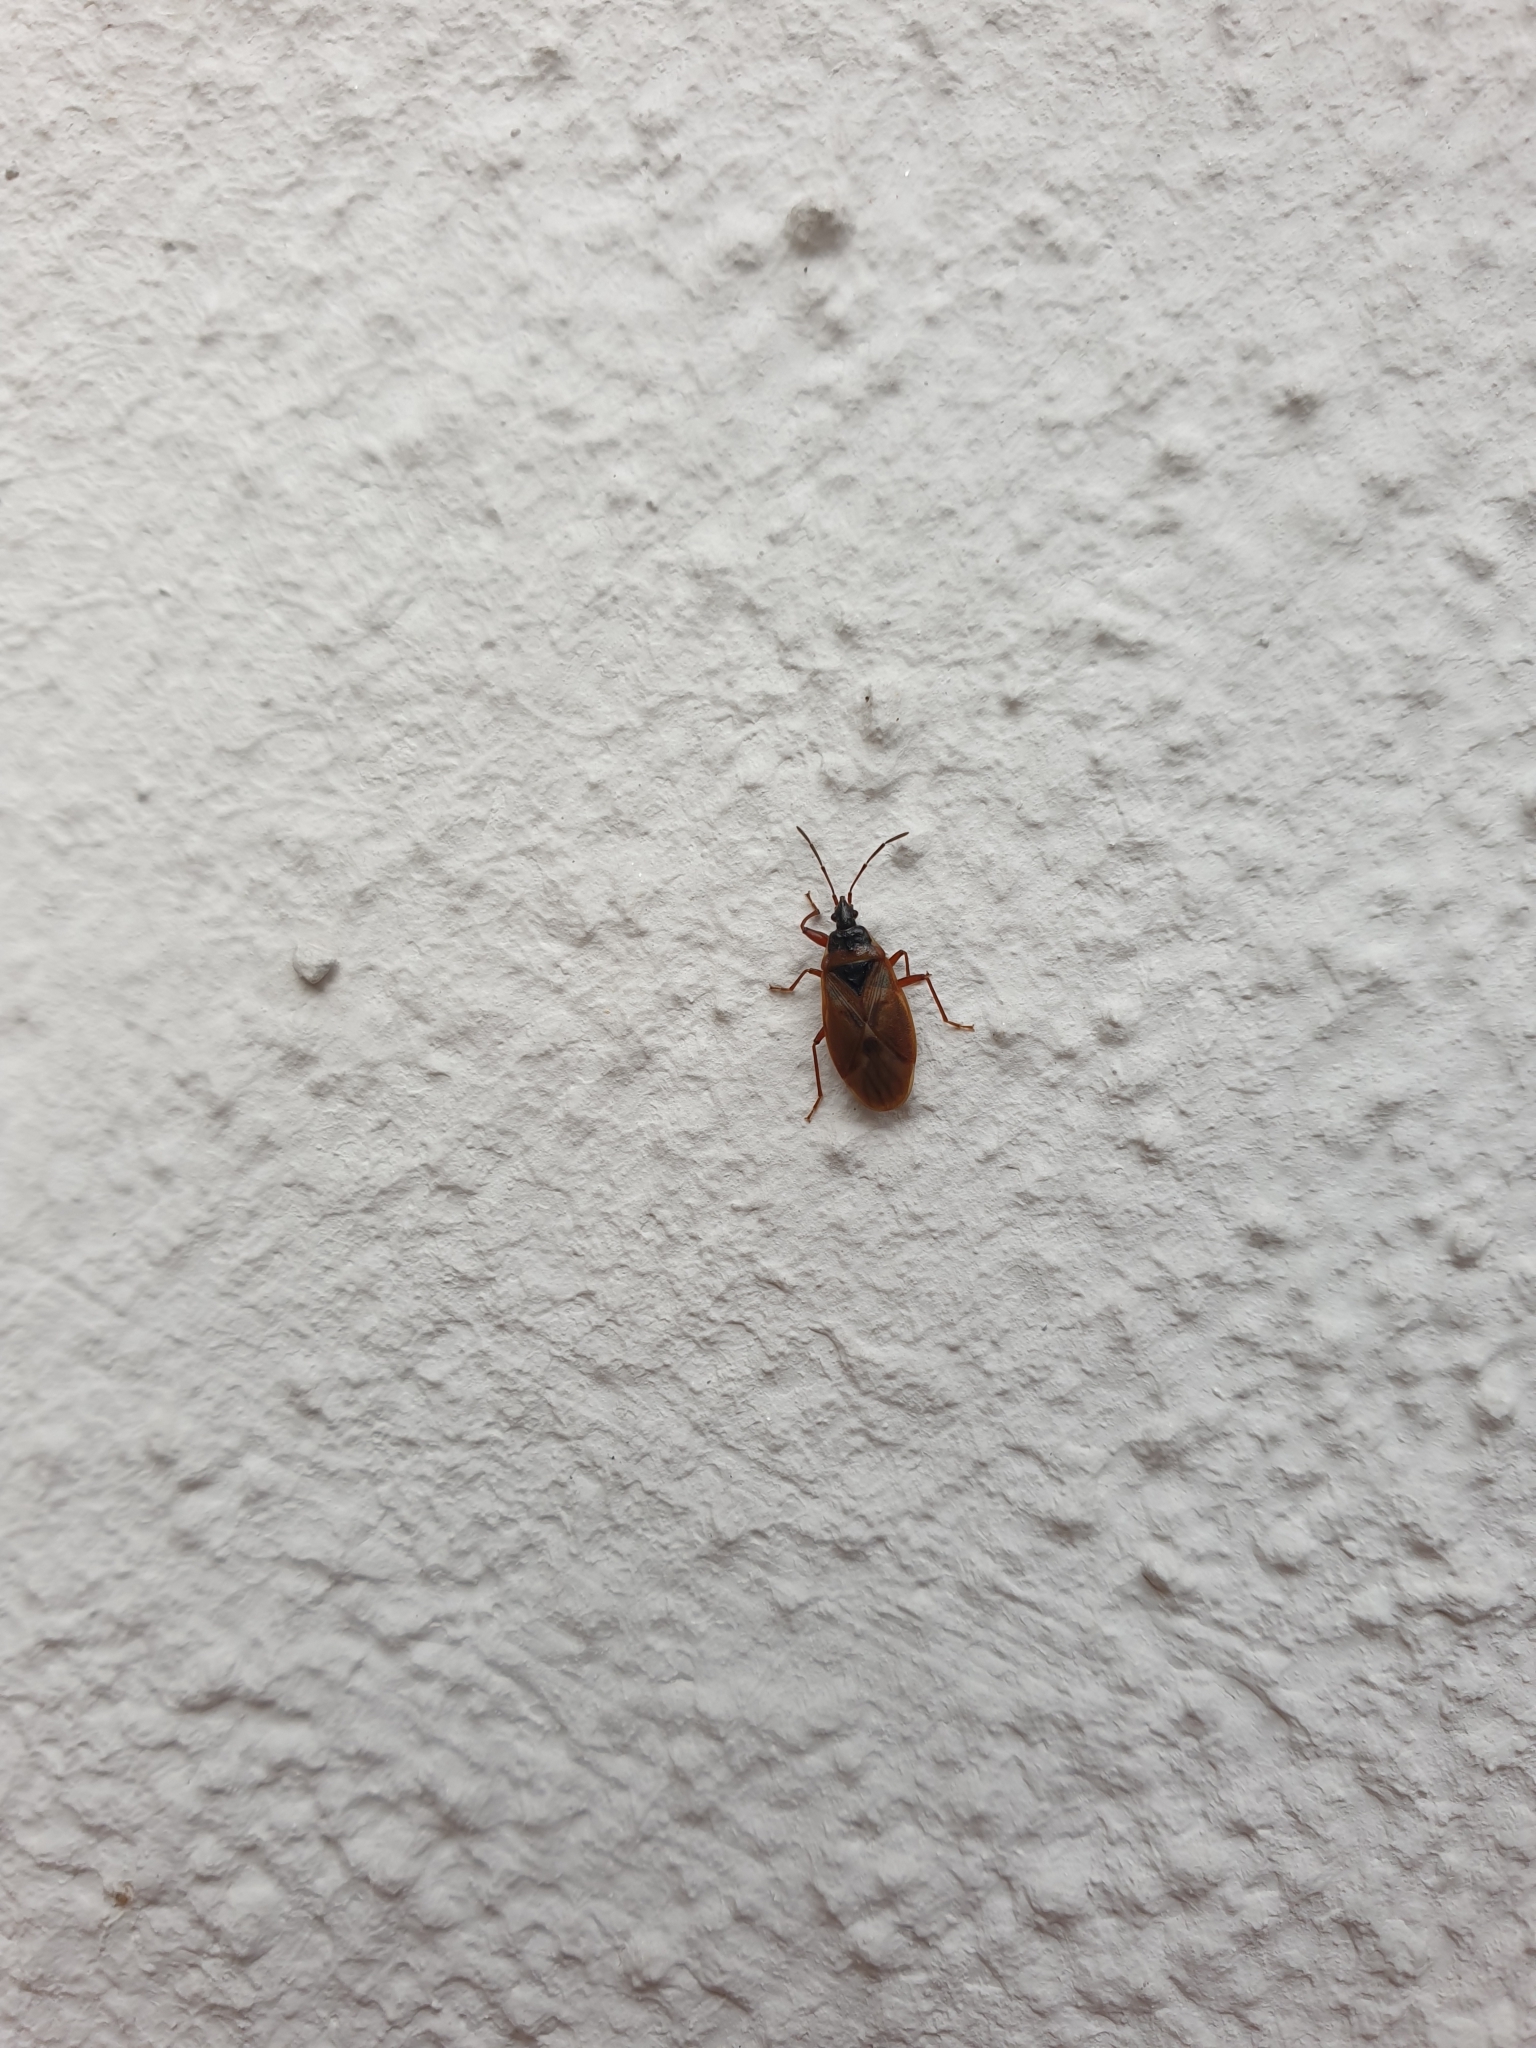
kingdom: Animalia
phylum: Arthropoda
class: Insecta
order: Hemiptera
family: Rhyparochromidae
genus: Gastrodes
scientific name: Gastrodes abietum
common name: Spruce cone bug
